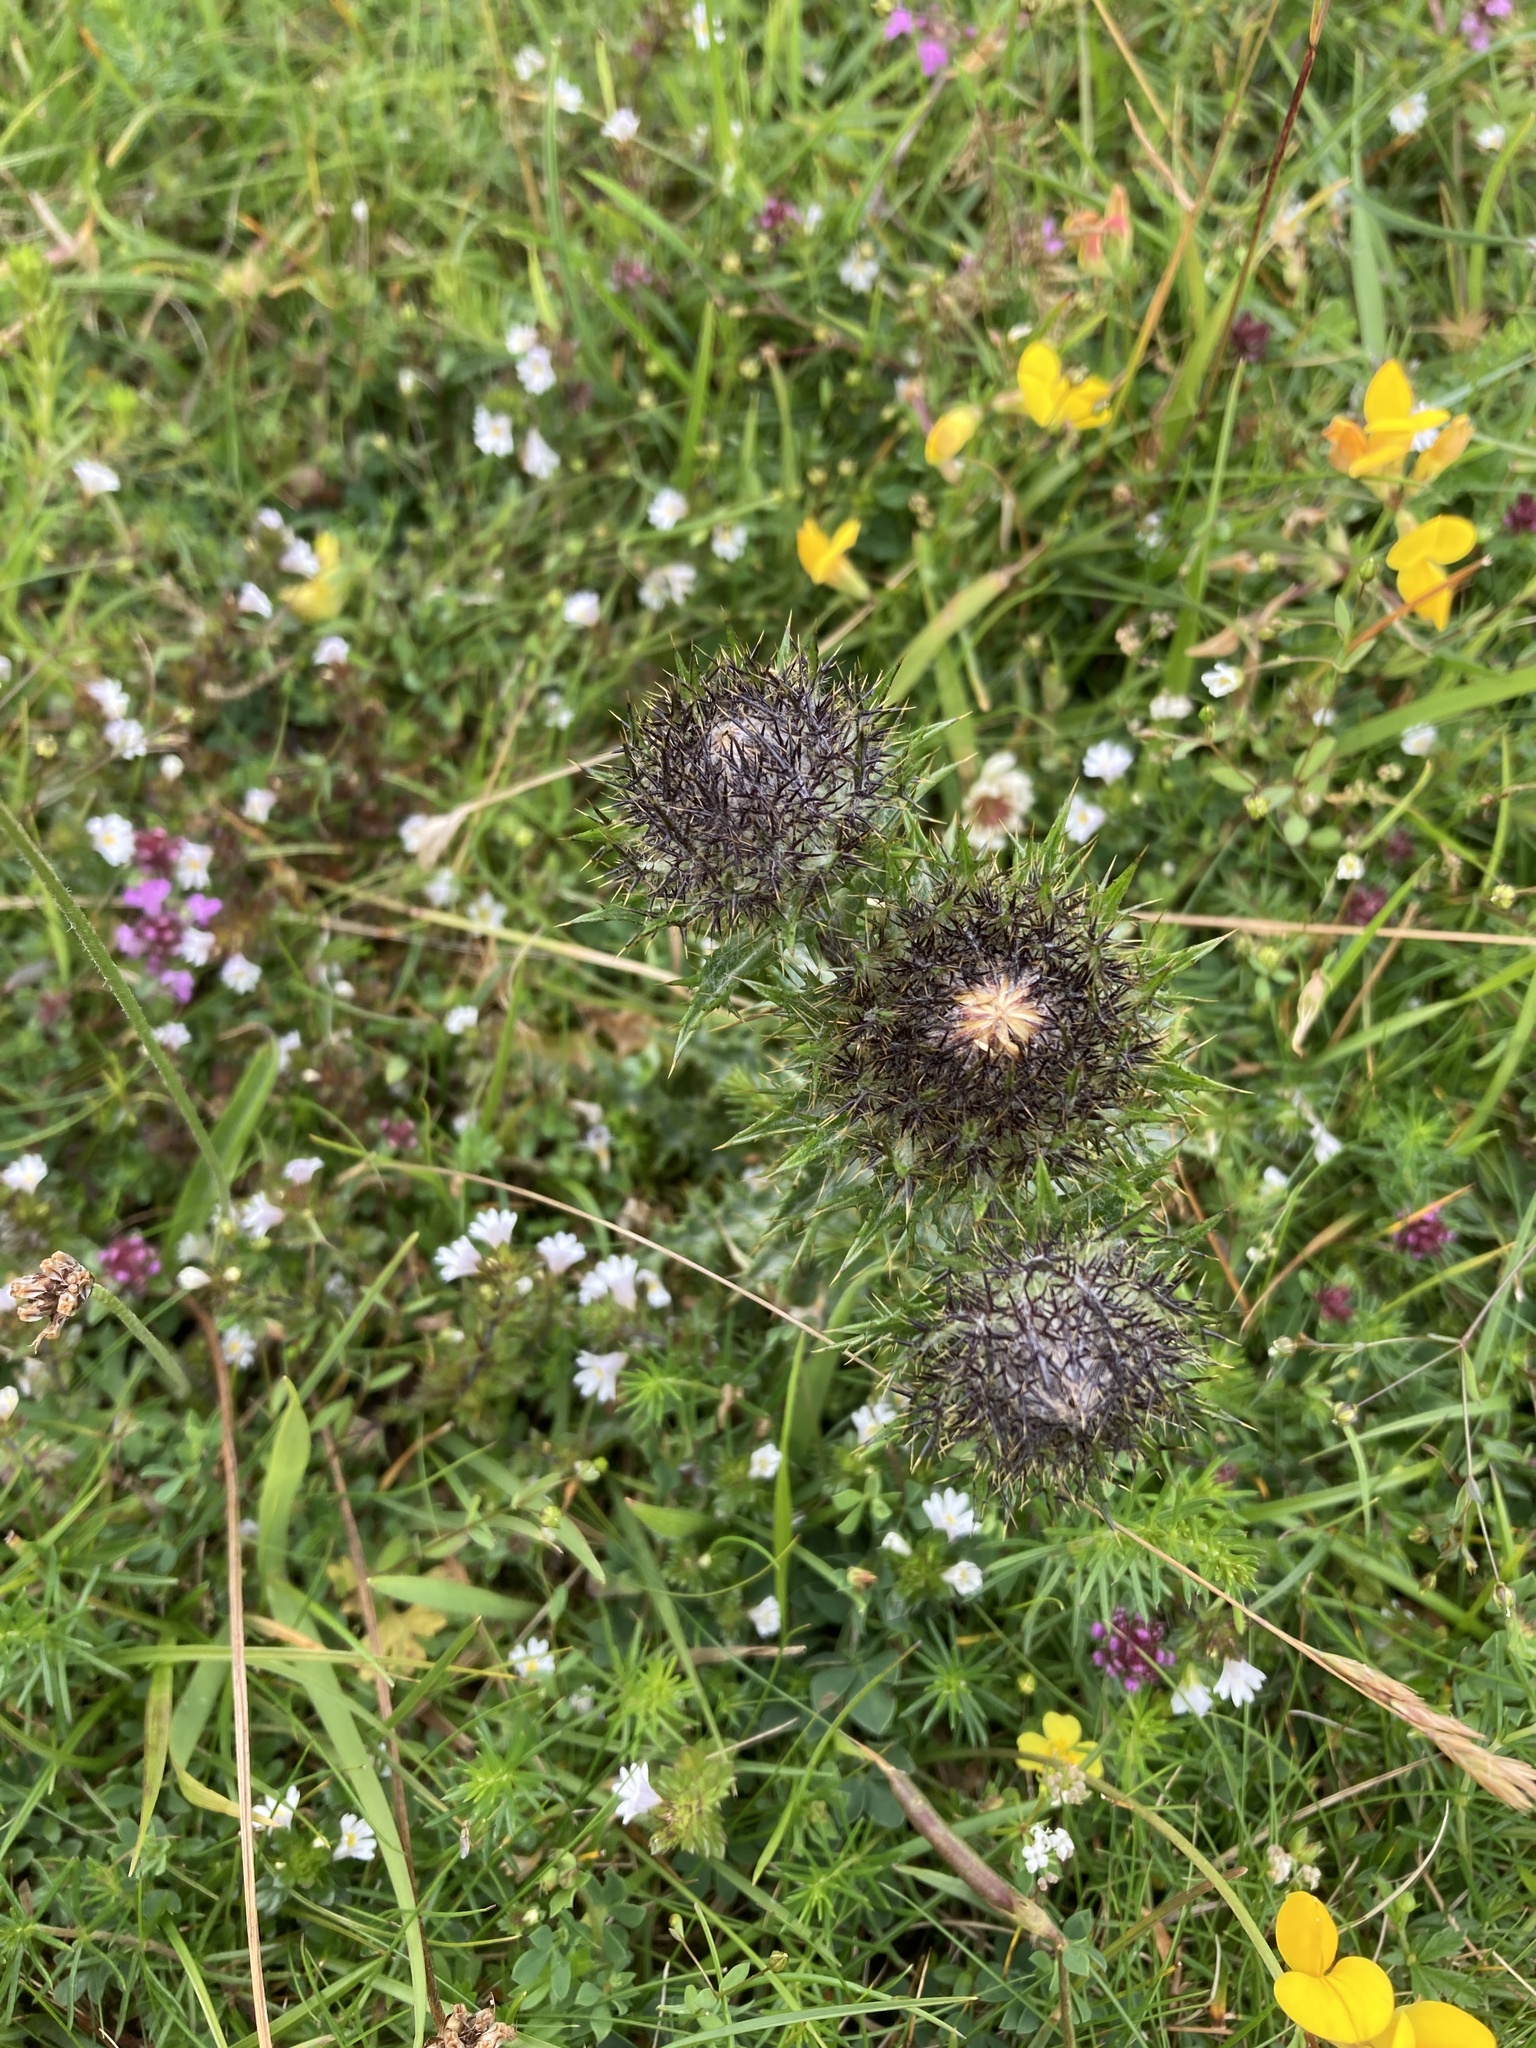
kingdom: Plantae
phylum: Tracheophyta
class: Magnoliopsida
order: Asterales
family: Asteraceae
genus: Carlina
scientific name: Carlina vulgaris
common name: Carline thistle
